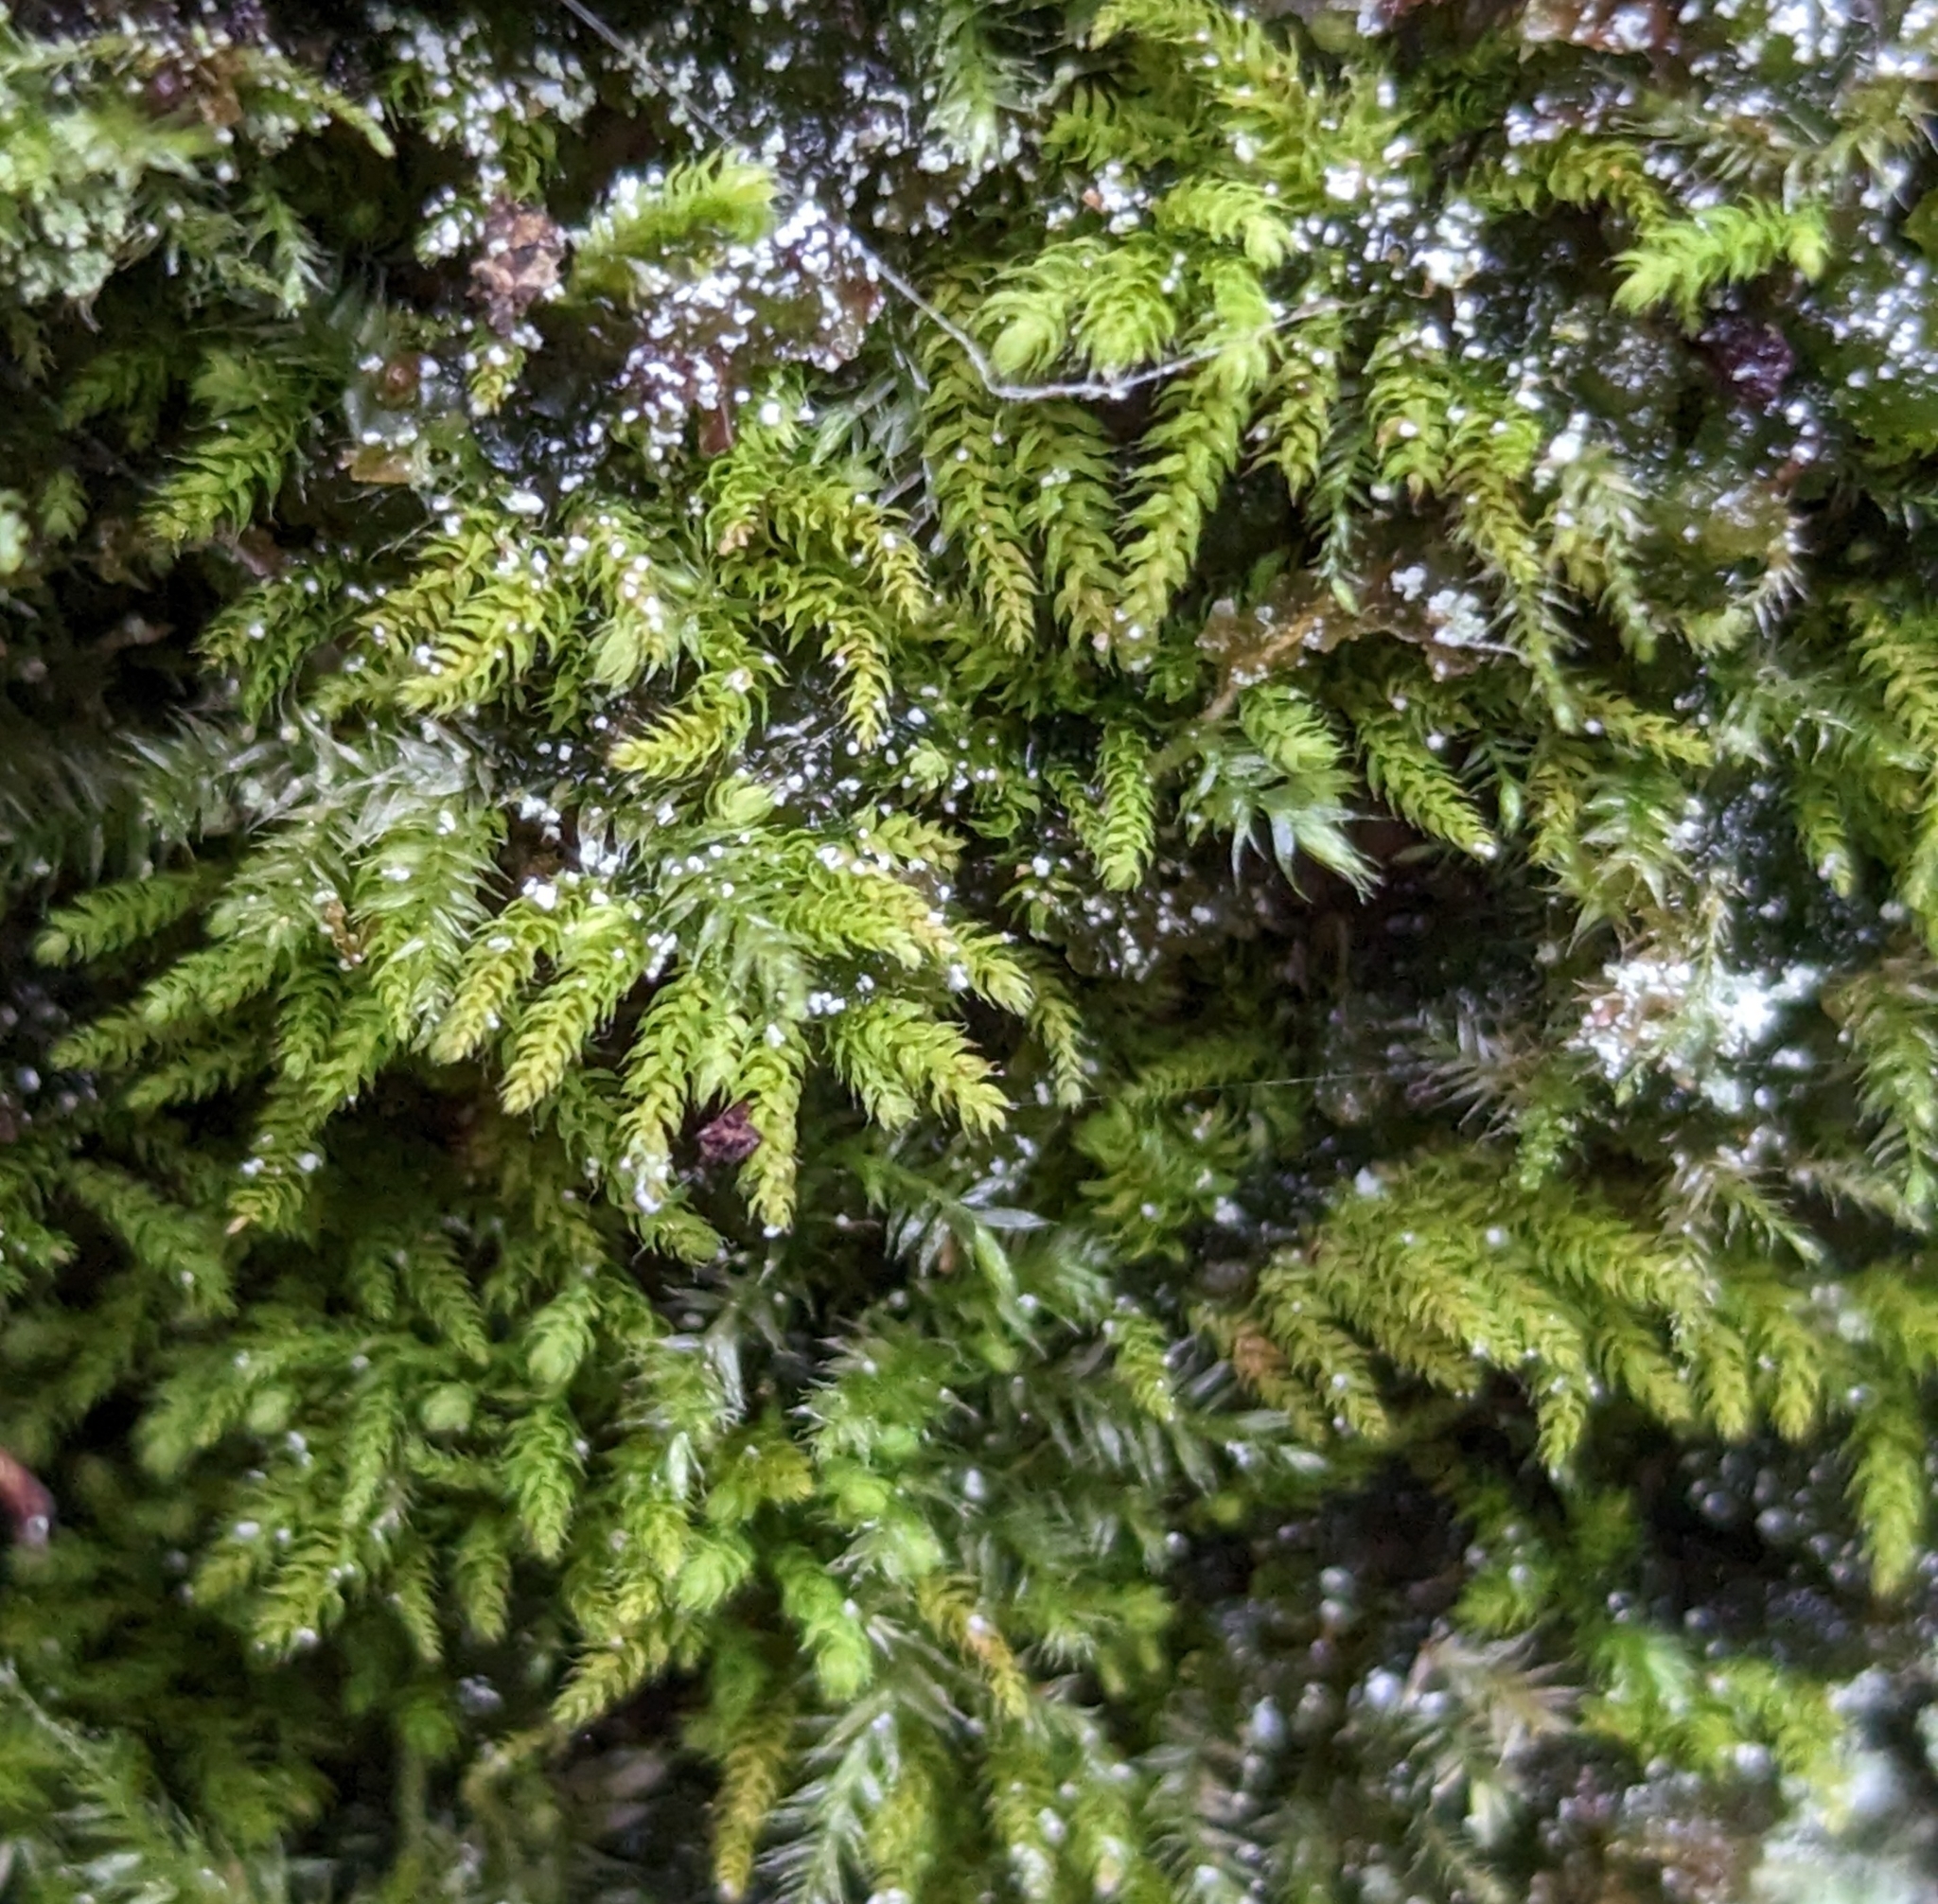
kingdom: Plantae
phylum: Bryophyta
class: Bryopsida
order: Hypnales
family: Brachytheciaceae
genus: Claopodium
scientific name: Claopodium crispifolium
